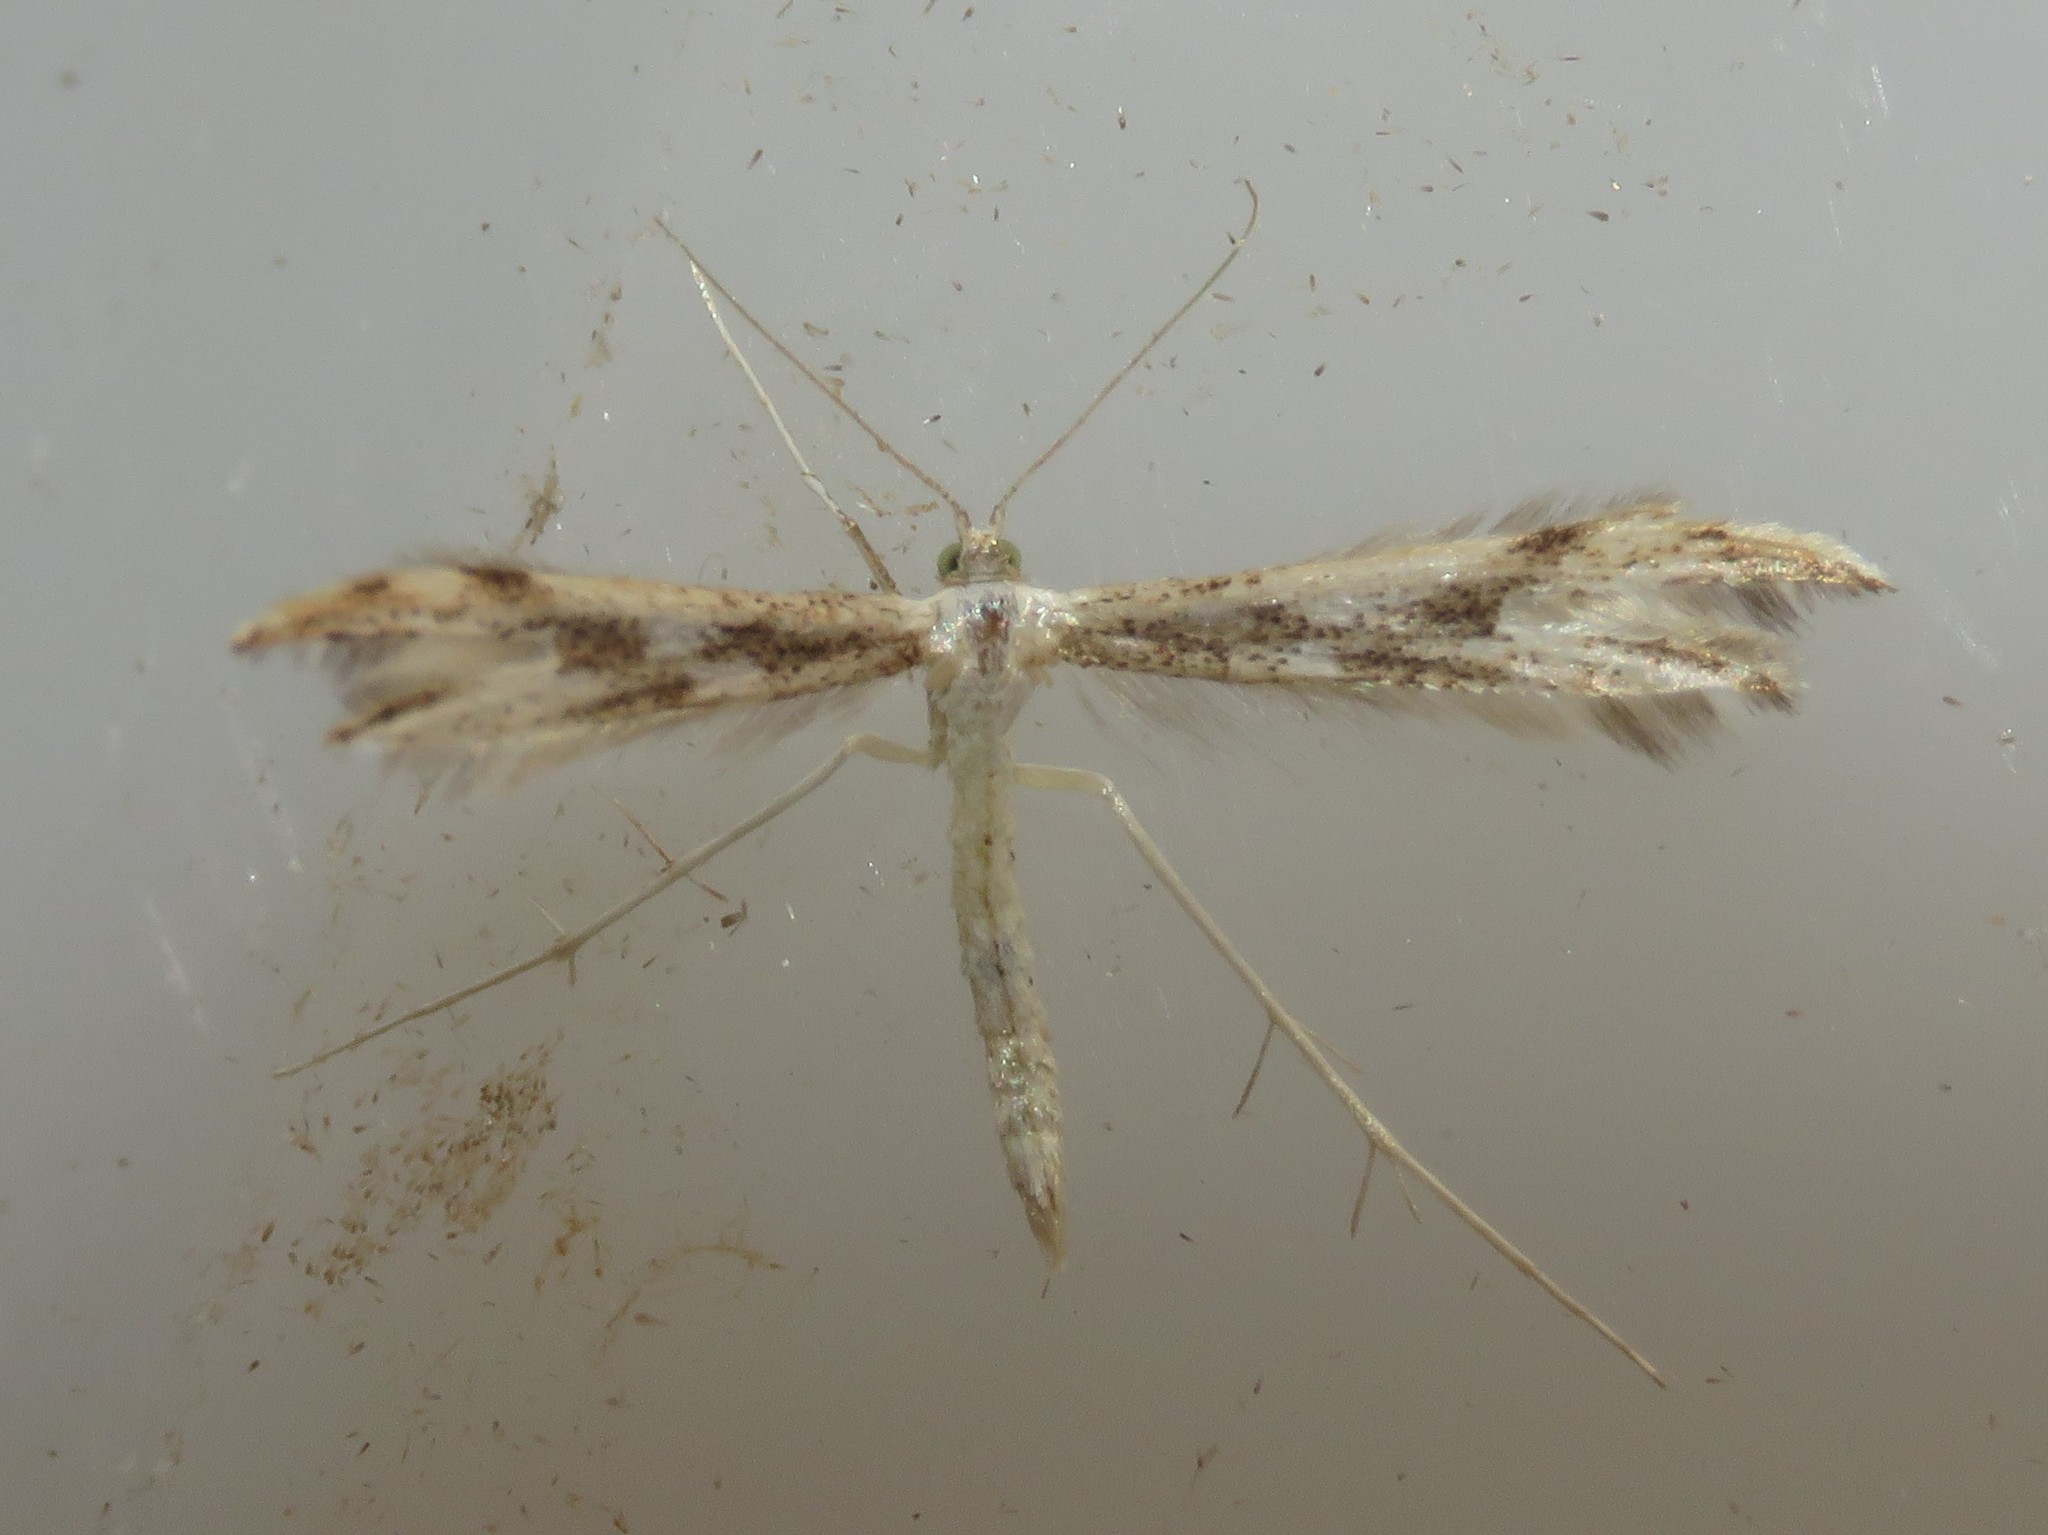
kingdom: Animalia
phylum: Arthropoda
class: Insecta
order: Lepidoptera
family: Pterophoridae
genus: Adaina
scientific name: Adaina montanus
